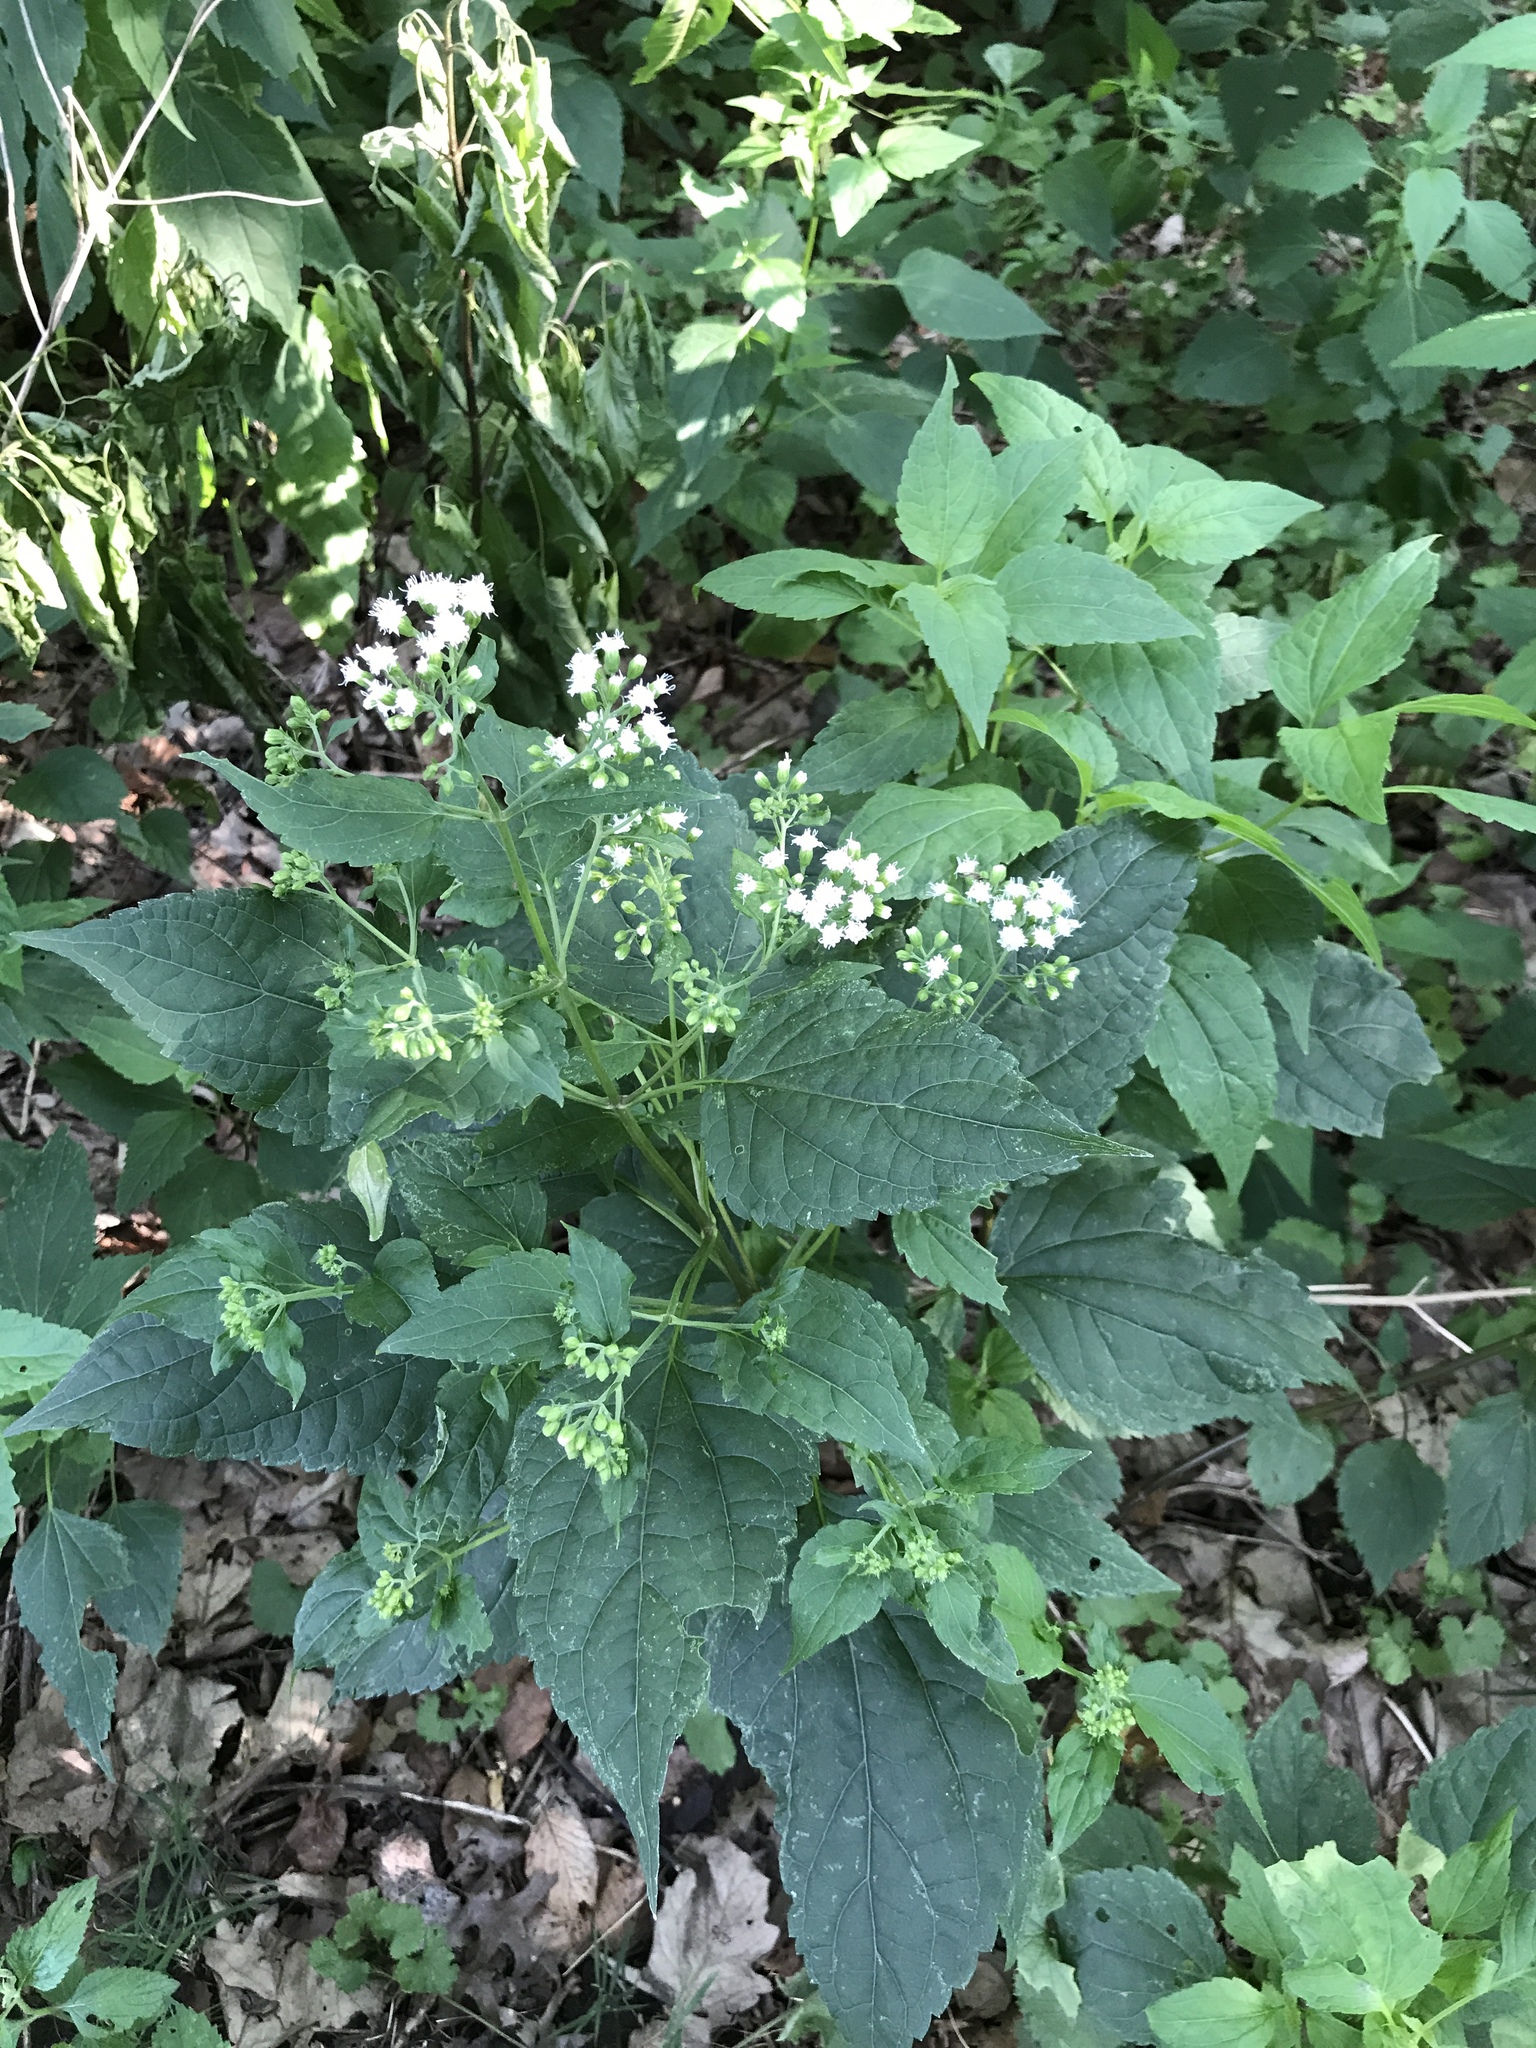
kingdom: Plantae
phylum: Tracheophyta
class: Magnoliopsida
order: Asterales
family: Asteraceae
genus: Ageratina
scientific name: Ageratina altissima
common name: White snakeroot
